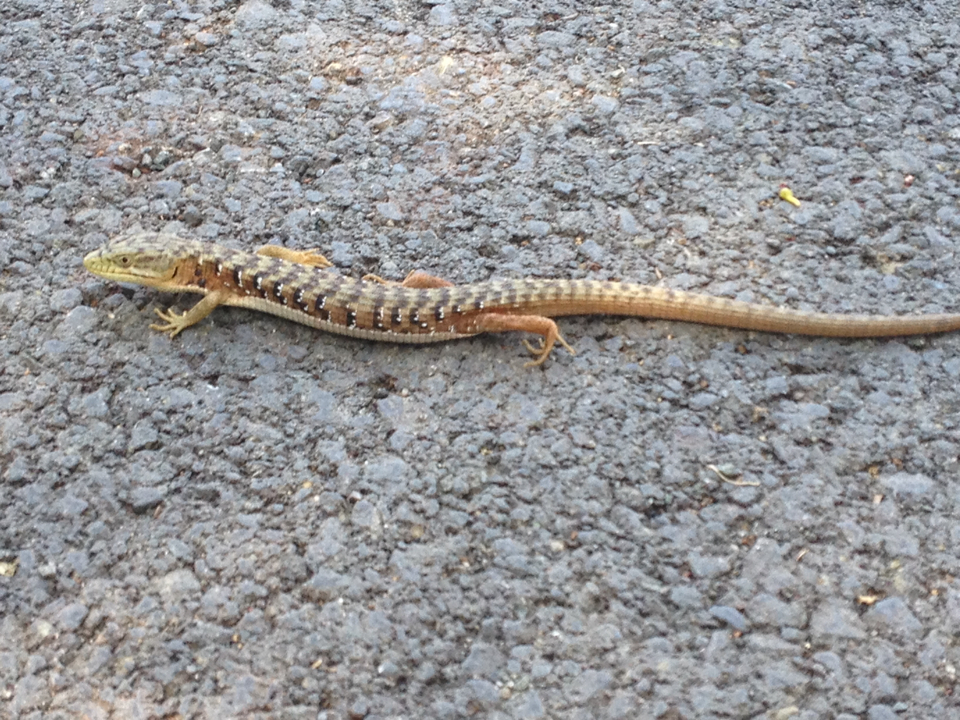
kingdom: Animalia
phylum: Chordata
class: Squamata
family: Anguidae
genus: Elgaria
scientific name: Elgaria multicarinata
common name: Southern alligator lizard
